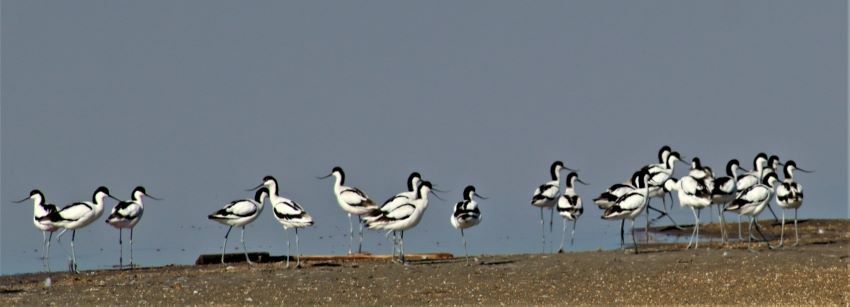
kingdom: Animalia
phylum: Chordata
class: Aves
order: Charadriiformes
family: Recurvirostridae
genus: Recurvirostra
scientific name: Recurvirostra avosetta
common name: Pied avocet
